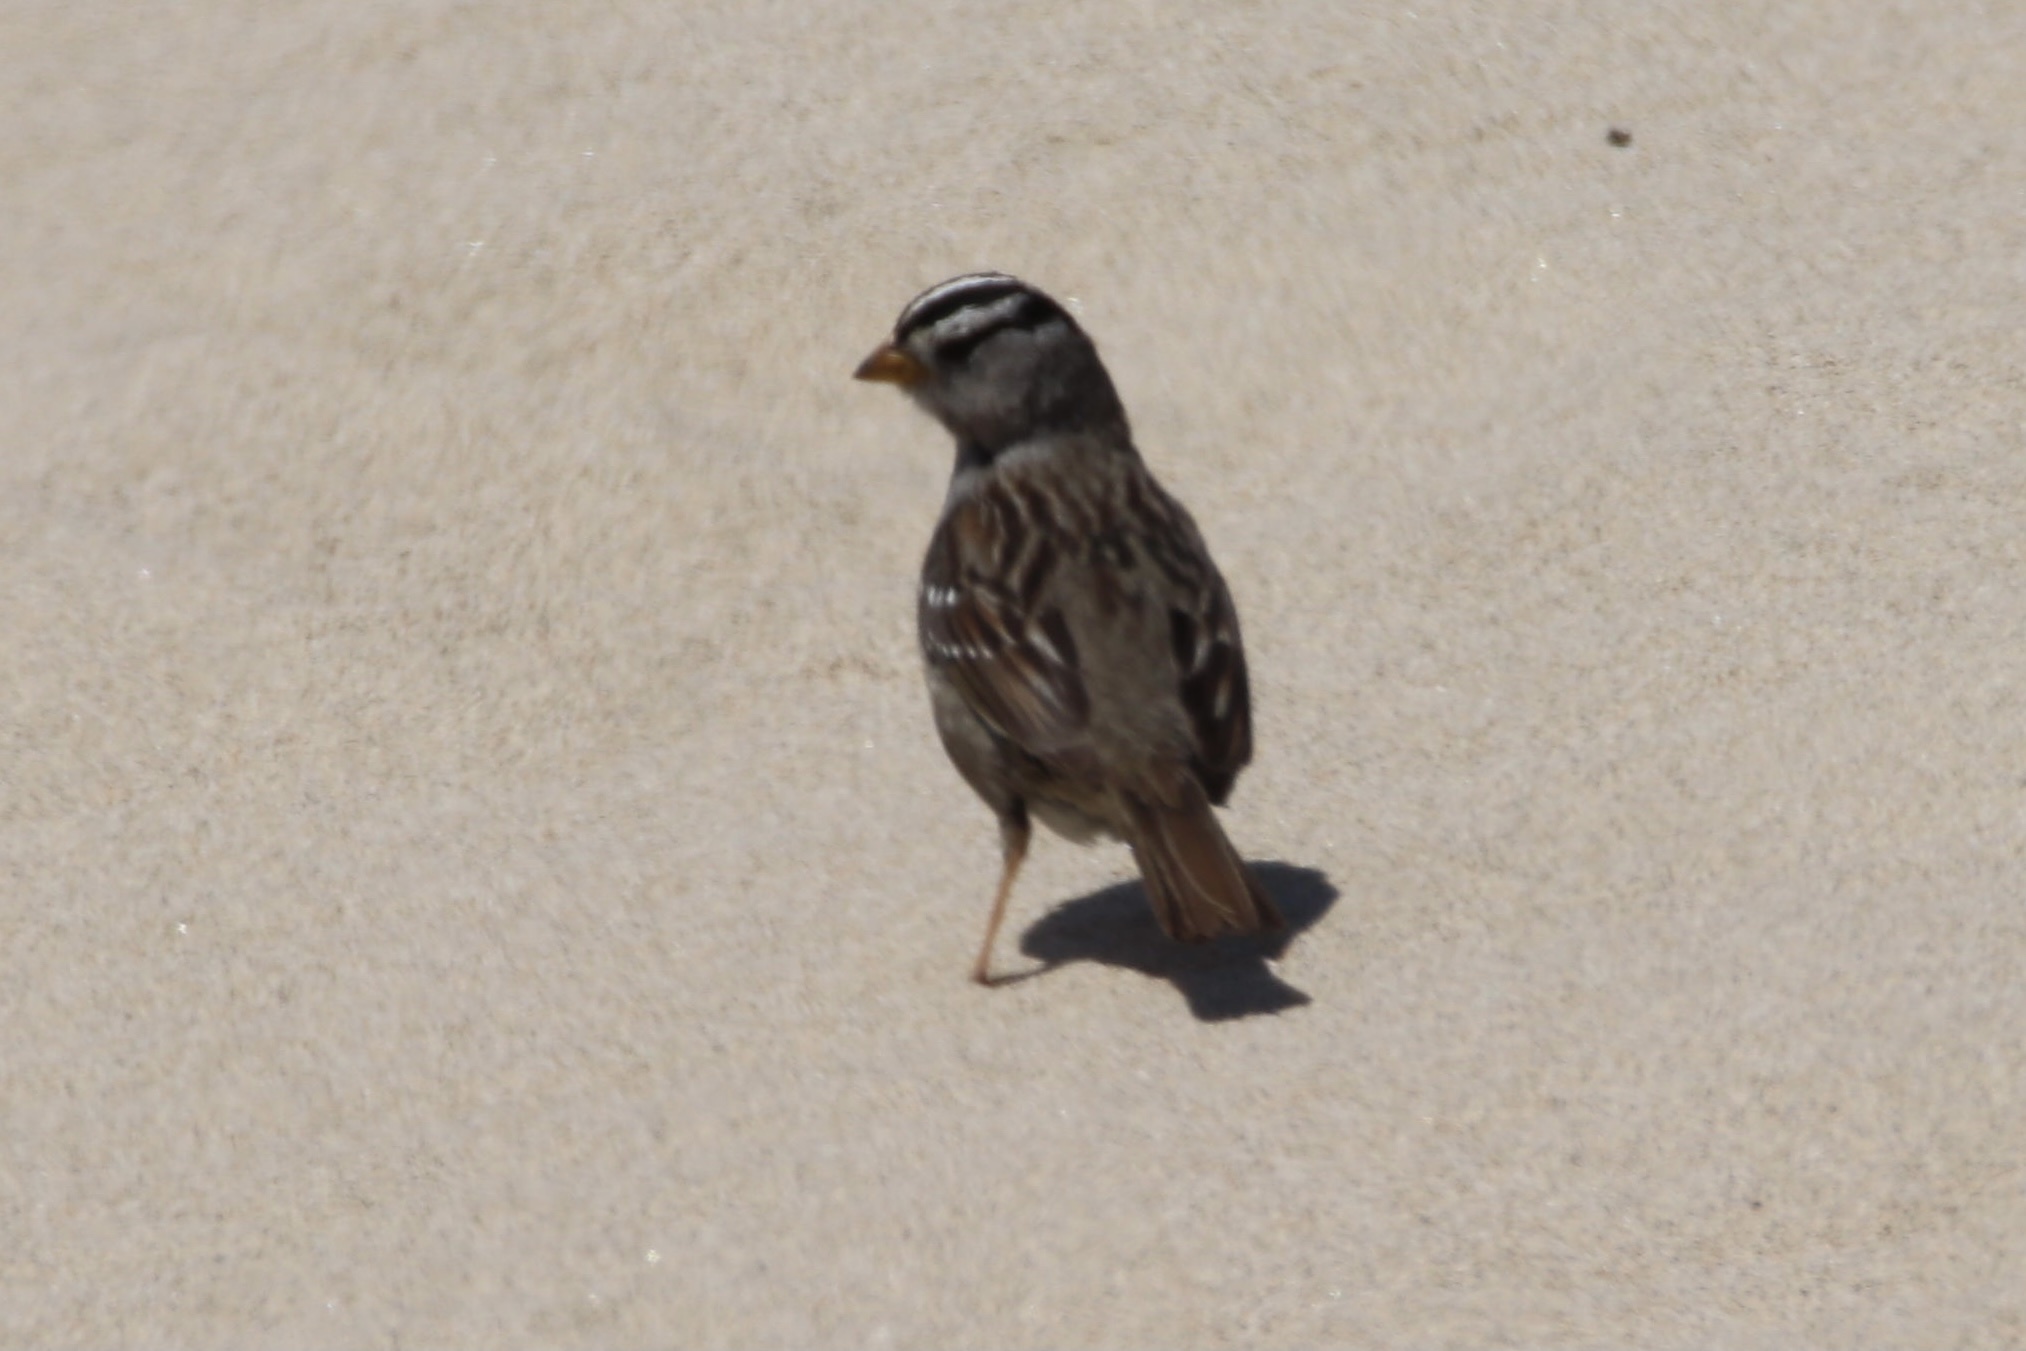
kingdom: Animalia
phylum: Chordata
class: Aves
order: Passeriformes
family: Passerellidae
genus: Zonotrichia
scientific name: Zonotrichia leucophrys
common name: White-crowned sparrow
